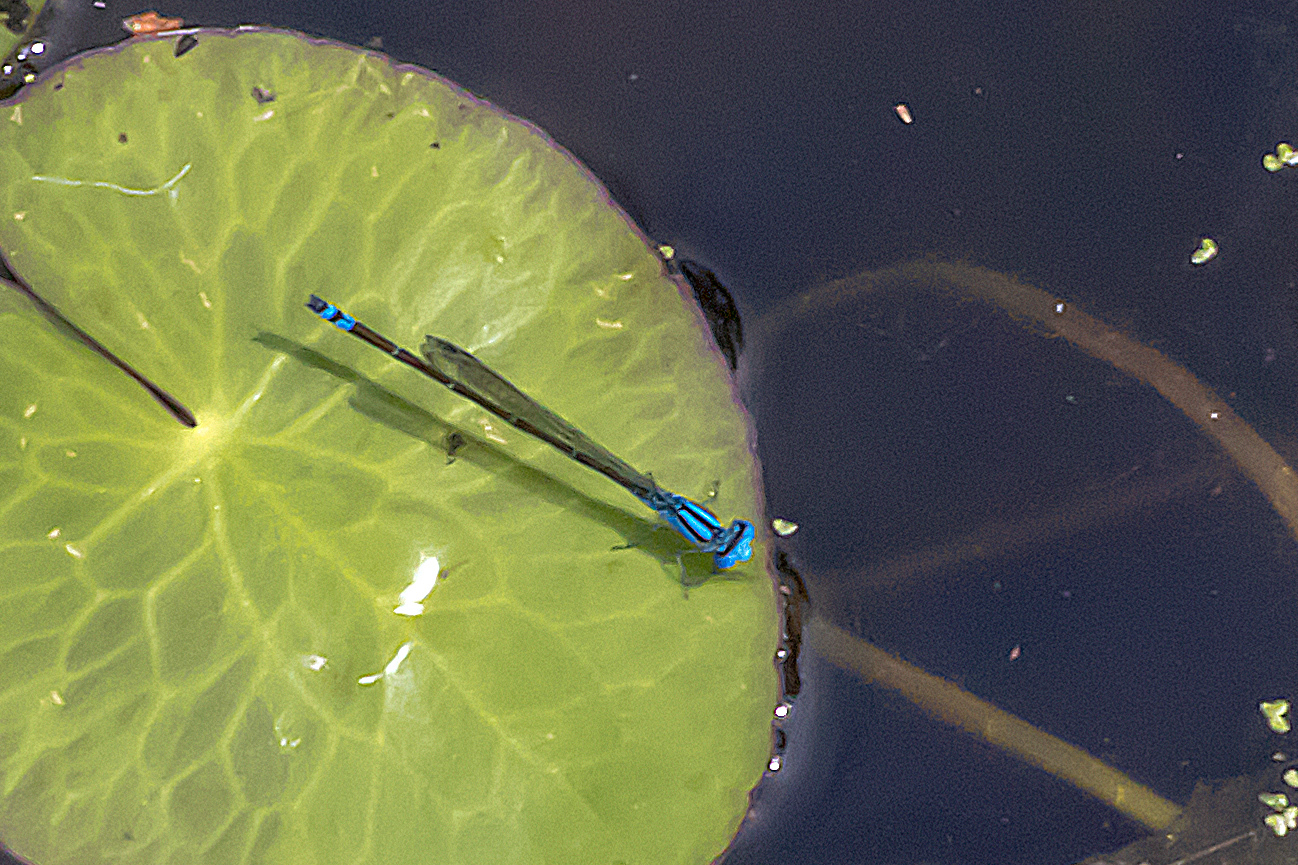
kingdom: Animalia
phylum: Arthropoda
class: Insecta
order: Odonata
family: Coenagrionidae
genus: Pseudagrion
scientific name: Pseudagrion microcephalum
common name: Blue riverdamsel
